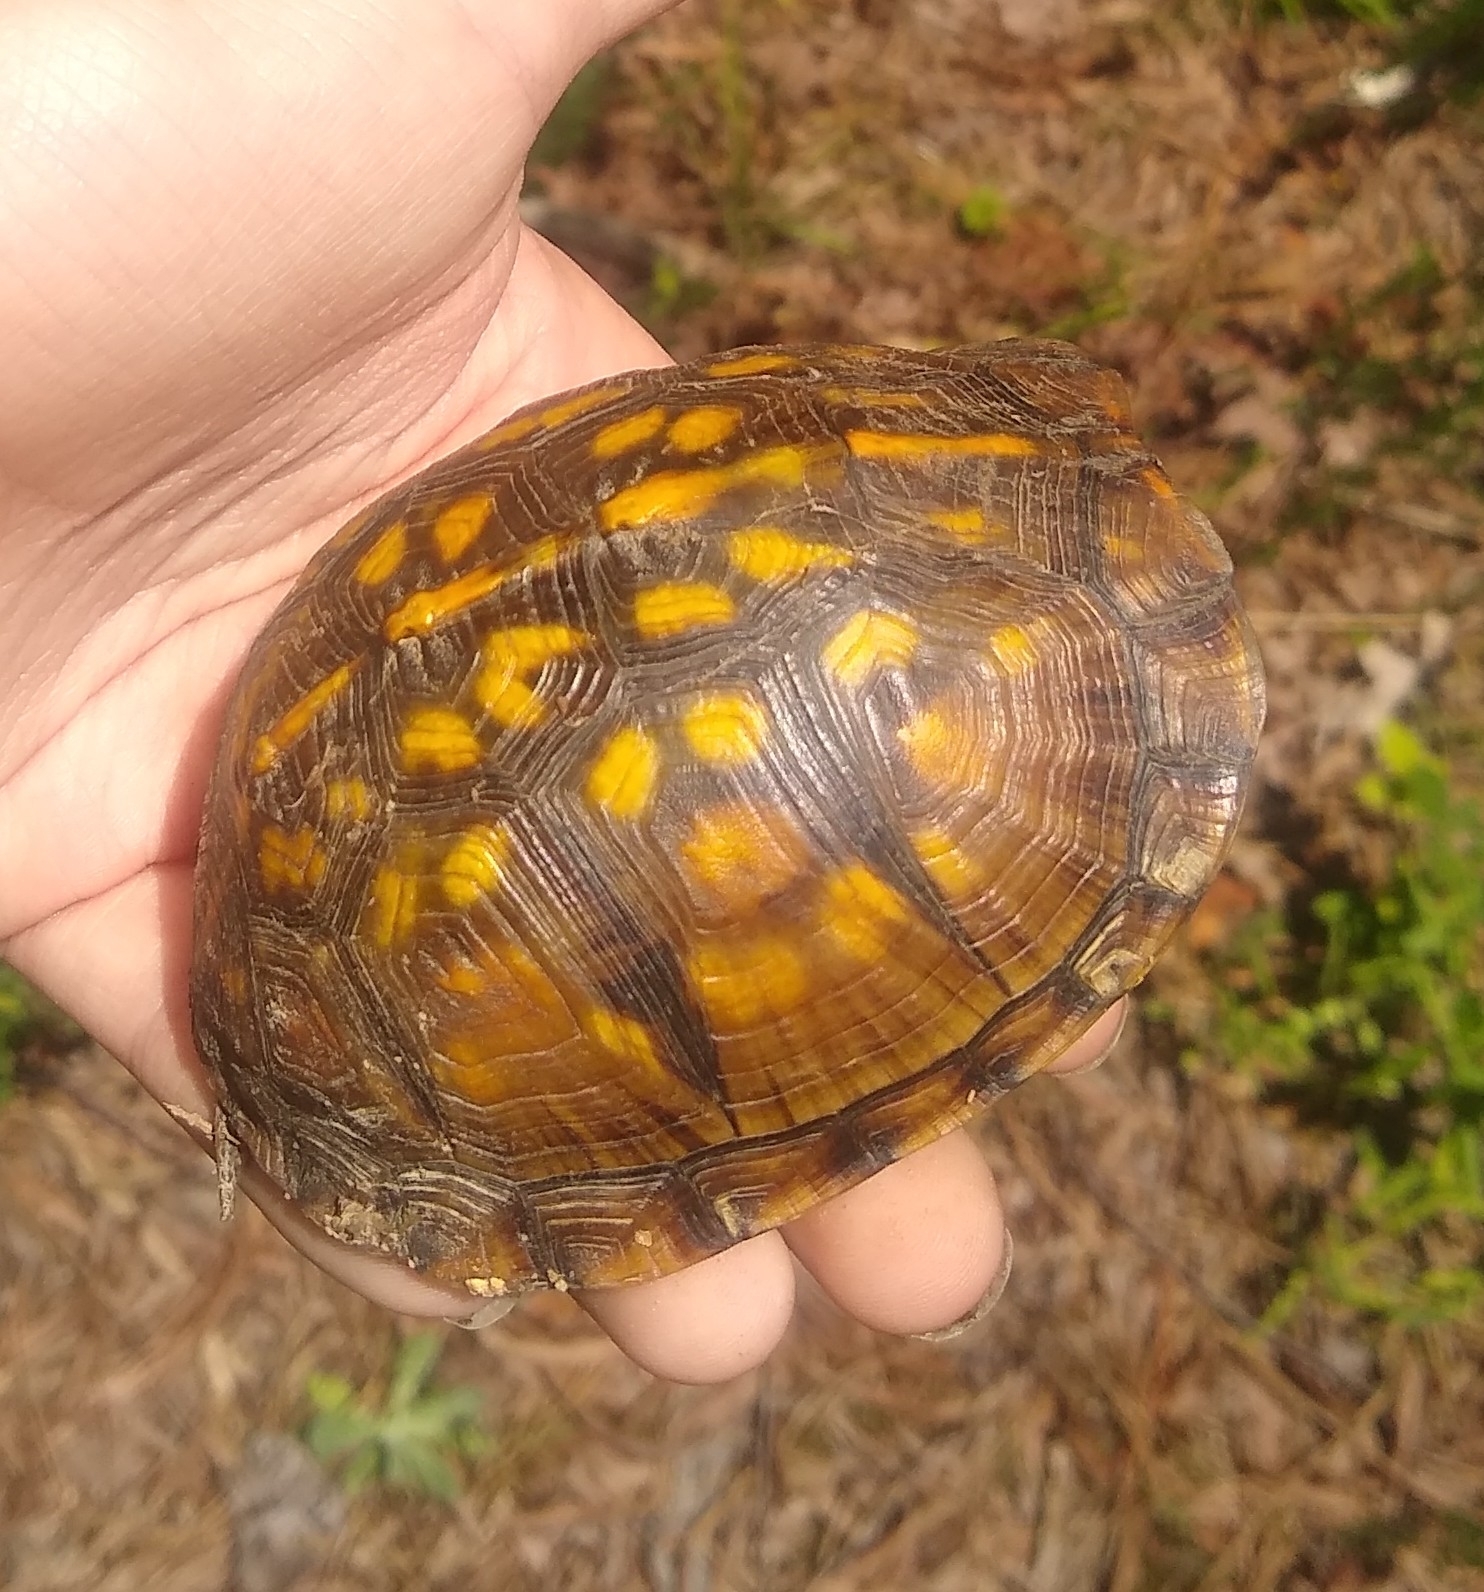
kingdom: Animalia
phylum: Chordata
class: Testudines
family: Emydidae
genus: Terrapene
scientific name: Terrapene carolina
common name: Common box turtle
